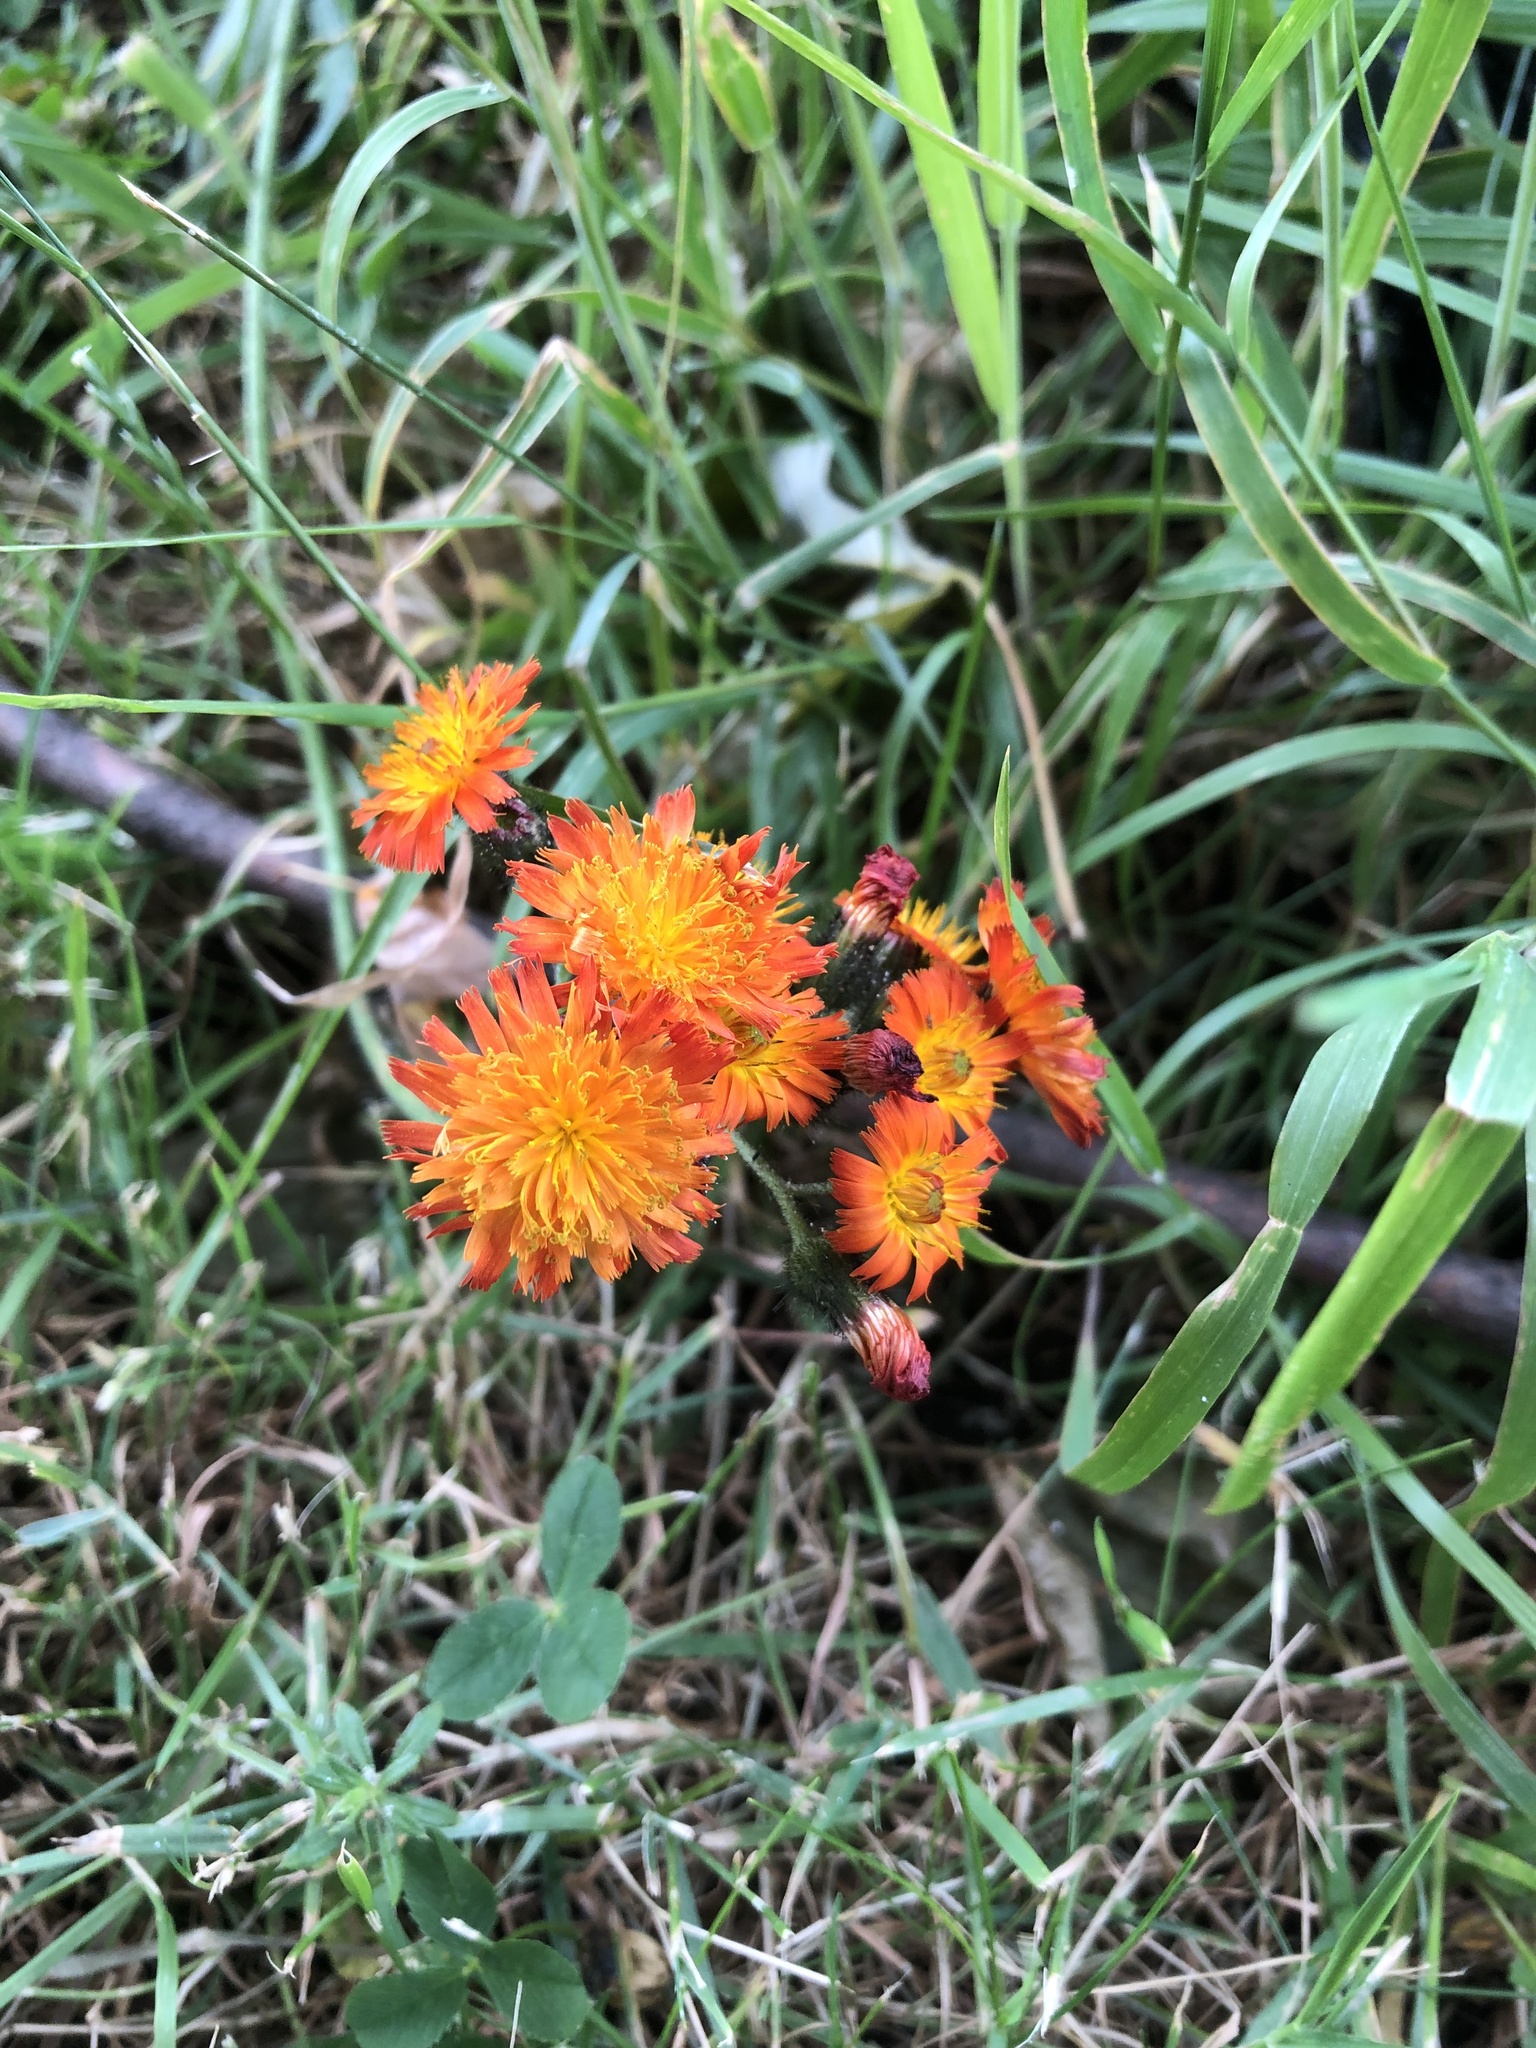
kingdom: Plantae
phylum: Tracheophyta
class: Magnoliopsida
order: Asterales
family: Asteraceae
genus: Pilosella
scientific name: Pilosella aurantiaca
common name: Fox-and-cubs
